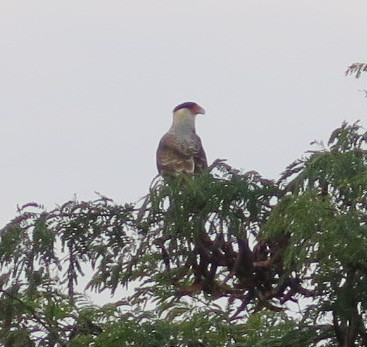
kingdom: Animalia
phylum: Chordata
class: Aves
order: Falconiformes
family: Falconidae
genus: Caracara
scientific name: Caracara plancus
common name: Southern caracara
